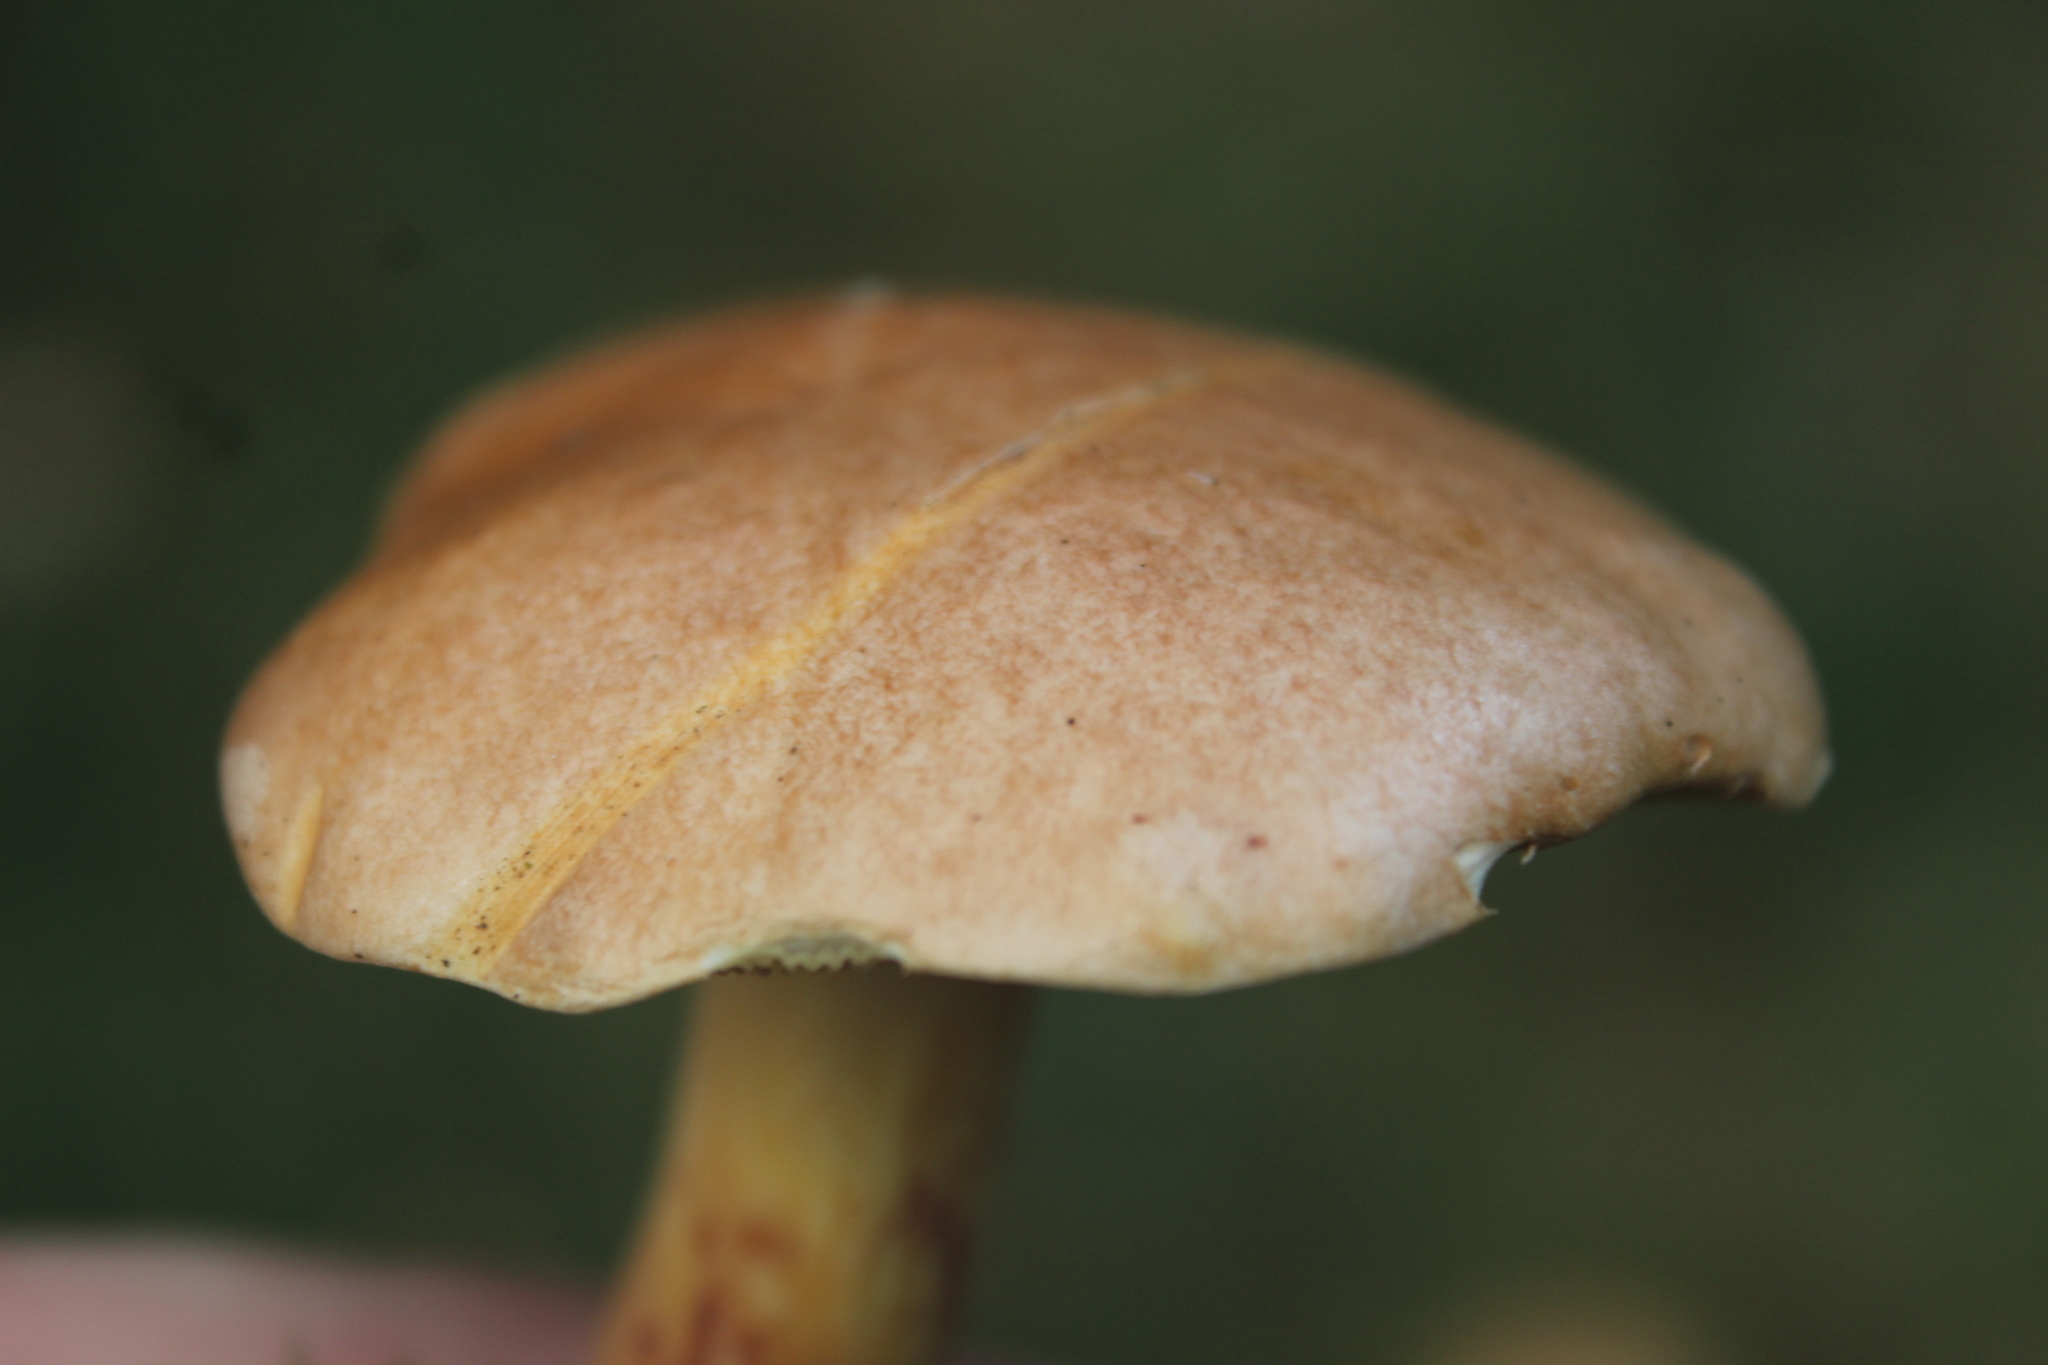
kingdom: Fungi
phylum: Basidiomycota
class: Agaricomycetes
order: Boletales
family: Suillaceae
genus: Suillus
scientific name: Suillus bovinus
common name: Bovine bolete
